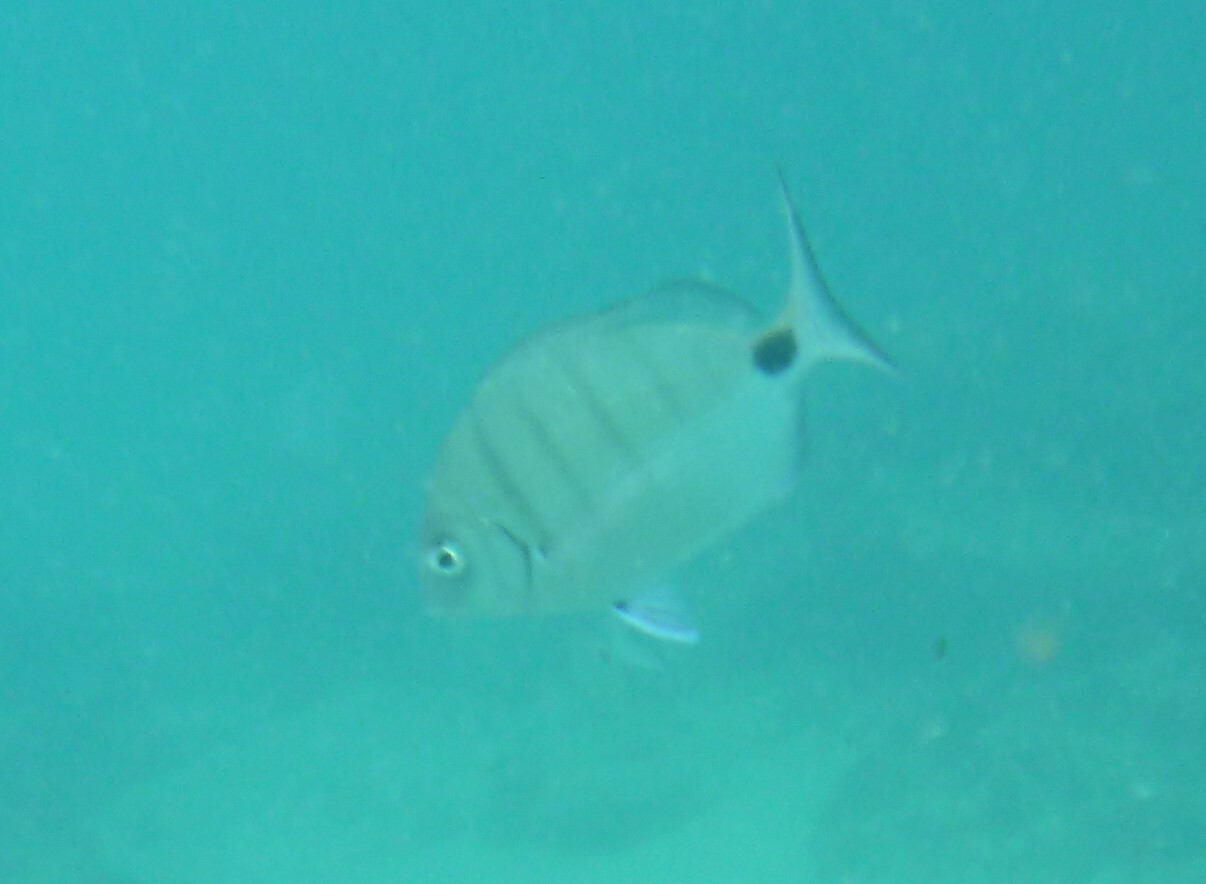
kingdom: Animalia
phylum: Chordata
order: Perciformes
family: Sparidae
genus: Diplodus
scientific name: Diplodus cadenati
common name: Moroccan white seabream
